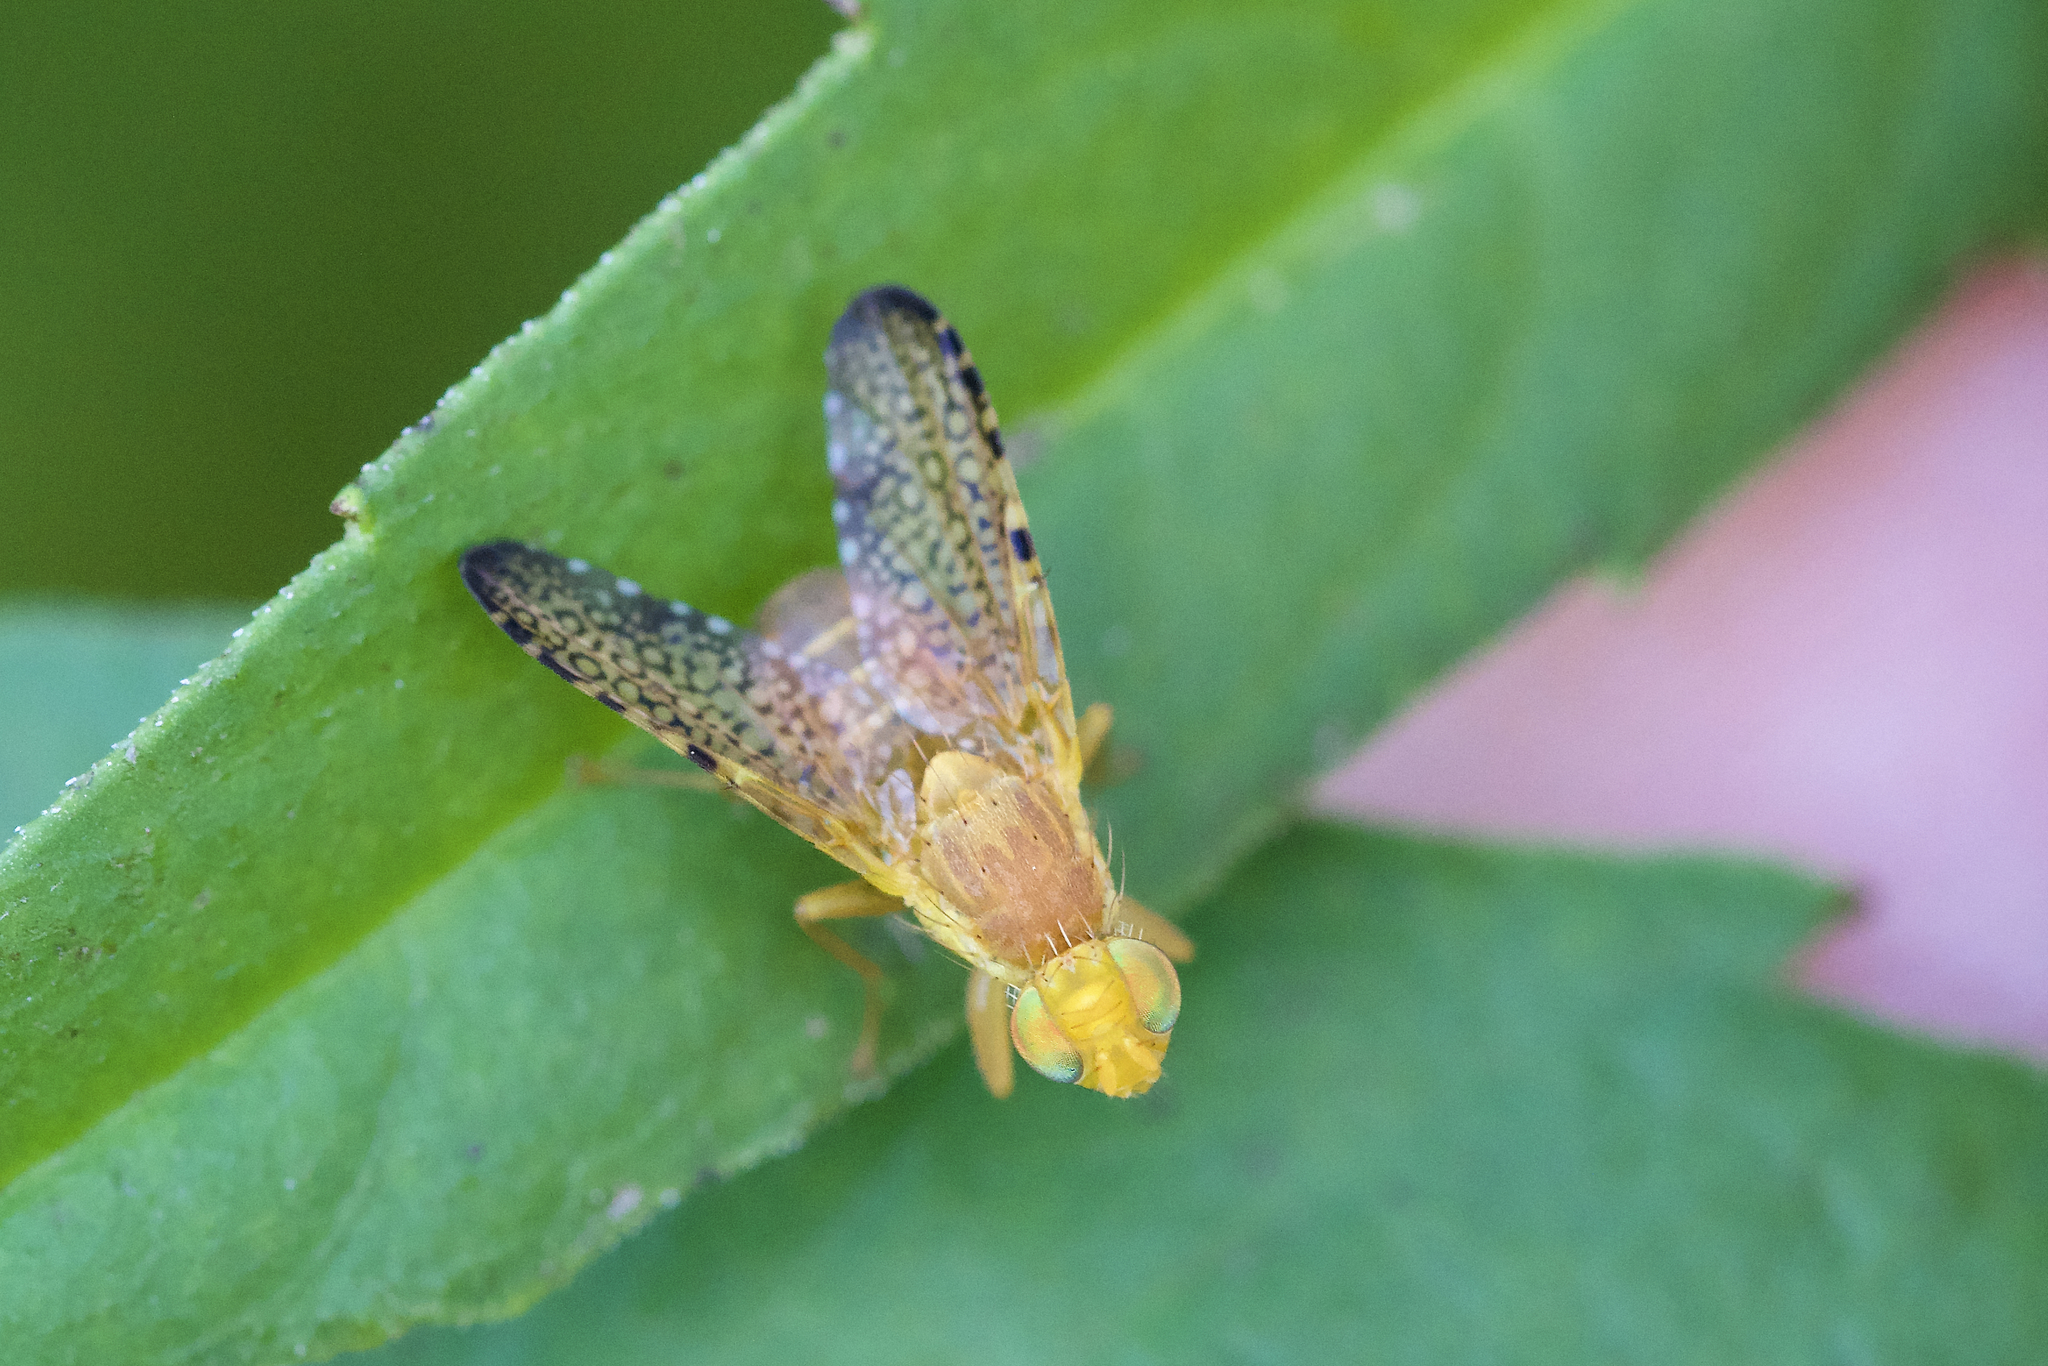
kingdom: Animalia
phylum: Arthropoda
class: Insecta
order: Diptera
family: Tephritidae
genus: Icterica
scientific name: Icterica circinata
